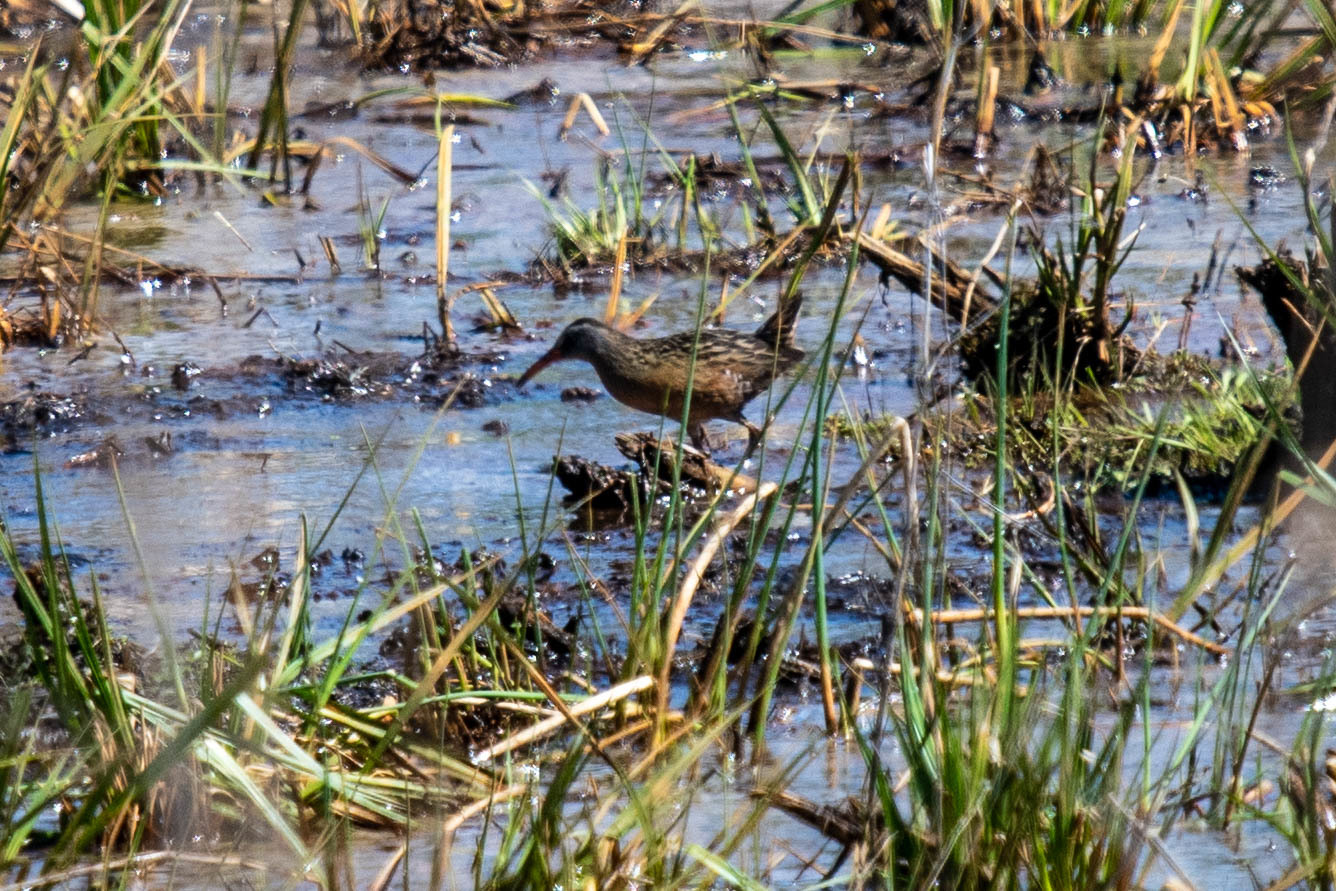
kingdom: Animalia
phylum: Chordata
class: Aves
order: Gruiformes
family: Rallidae
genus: Rallus
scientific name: Rallus limicola
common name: Virginia rail
